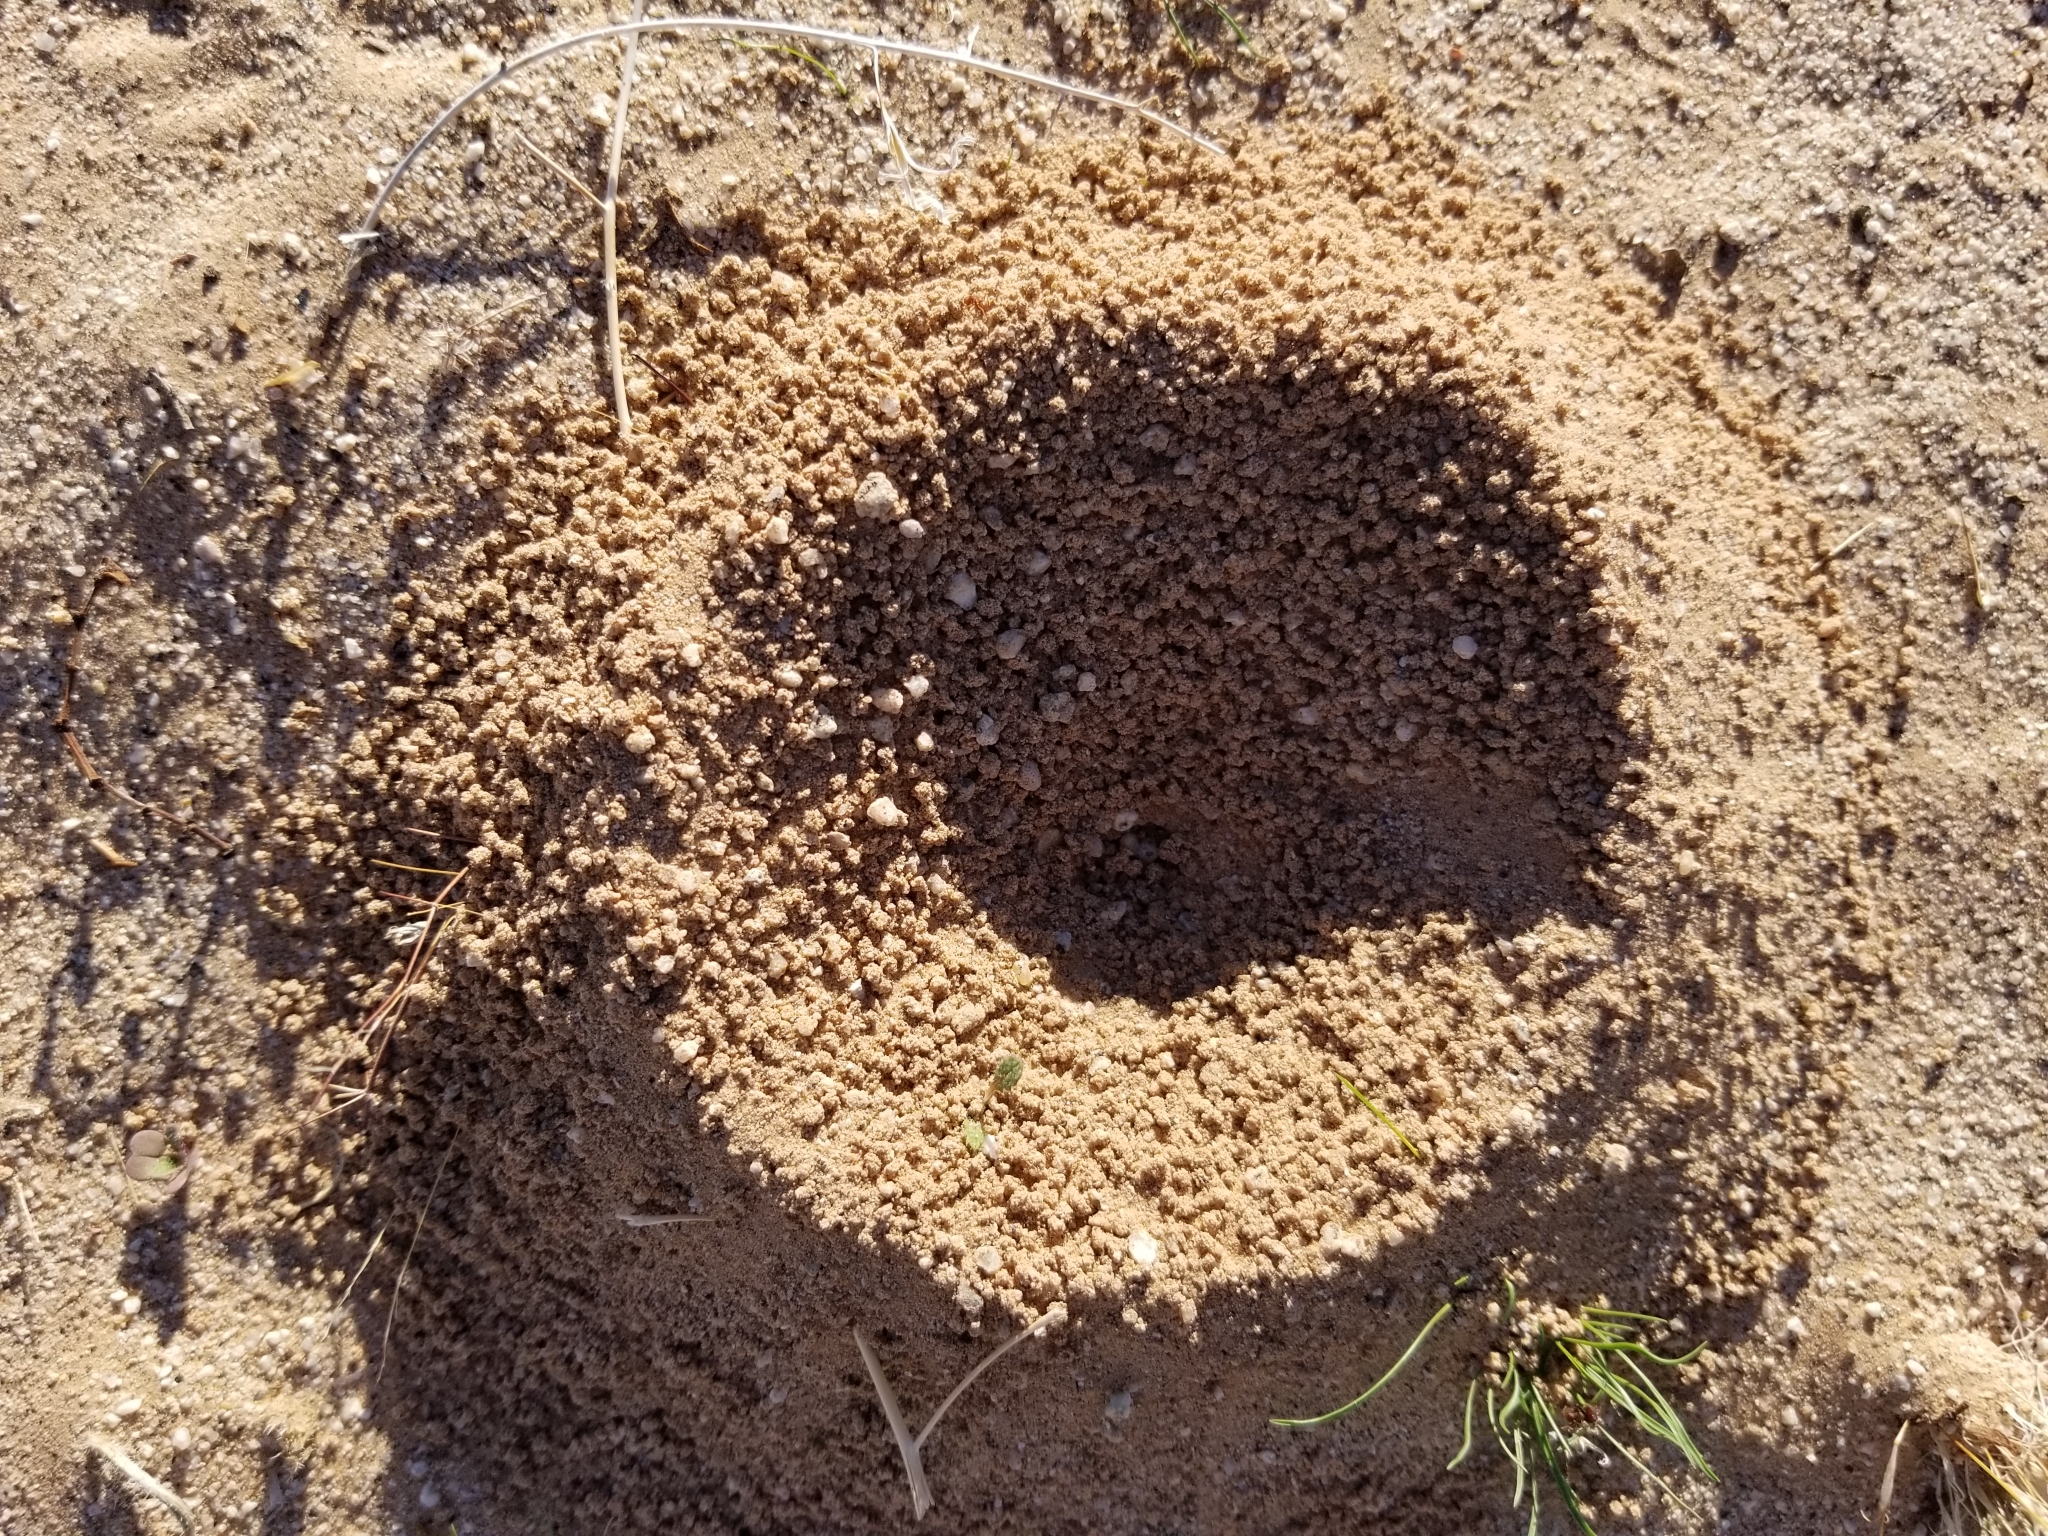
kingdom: Animalia
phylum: Arthropoda
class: Insecta
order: Hymenoptera
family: Formicidae
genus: Acromyrmex
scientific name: Acromyrmex versicolor
